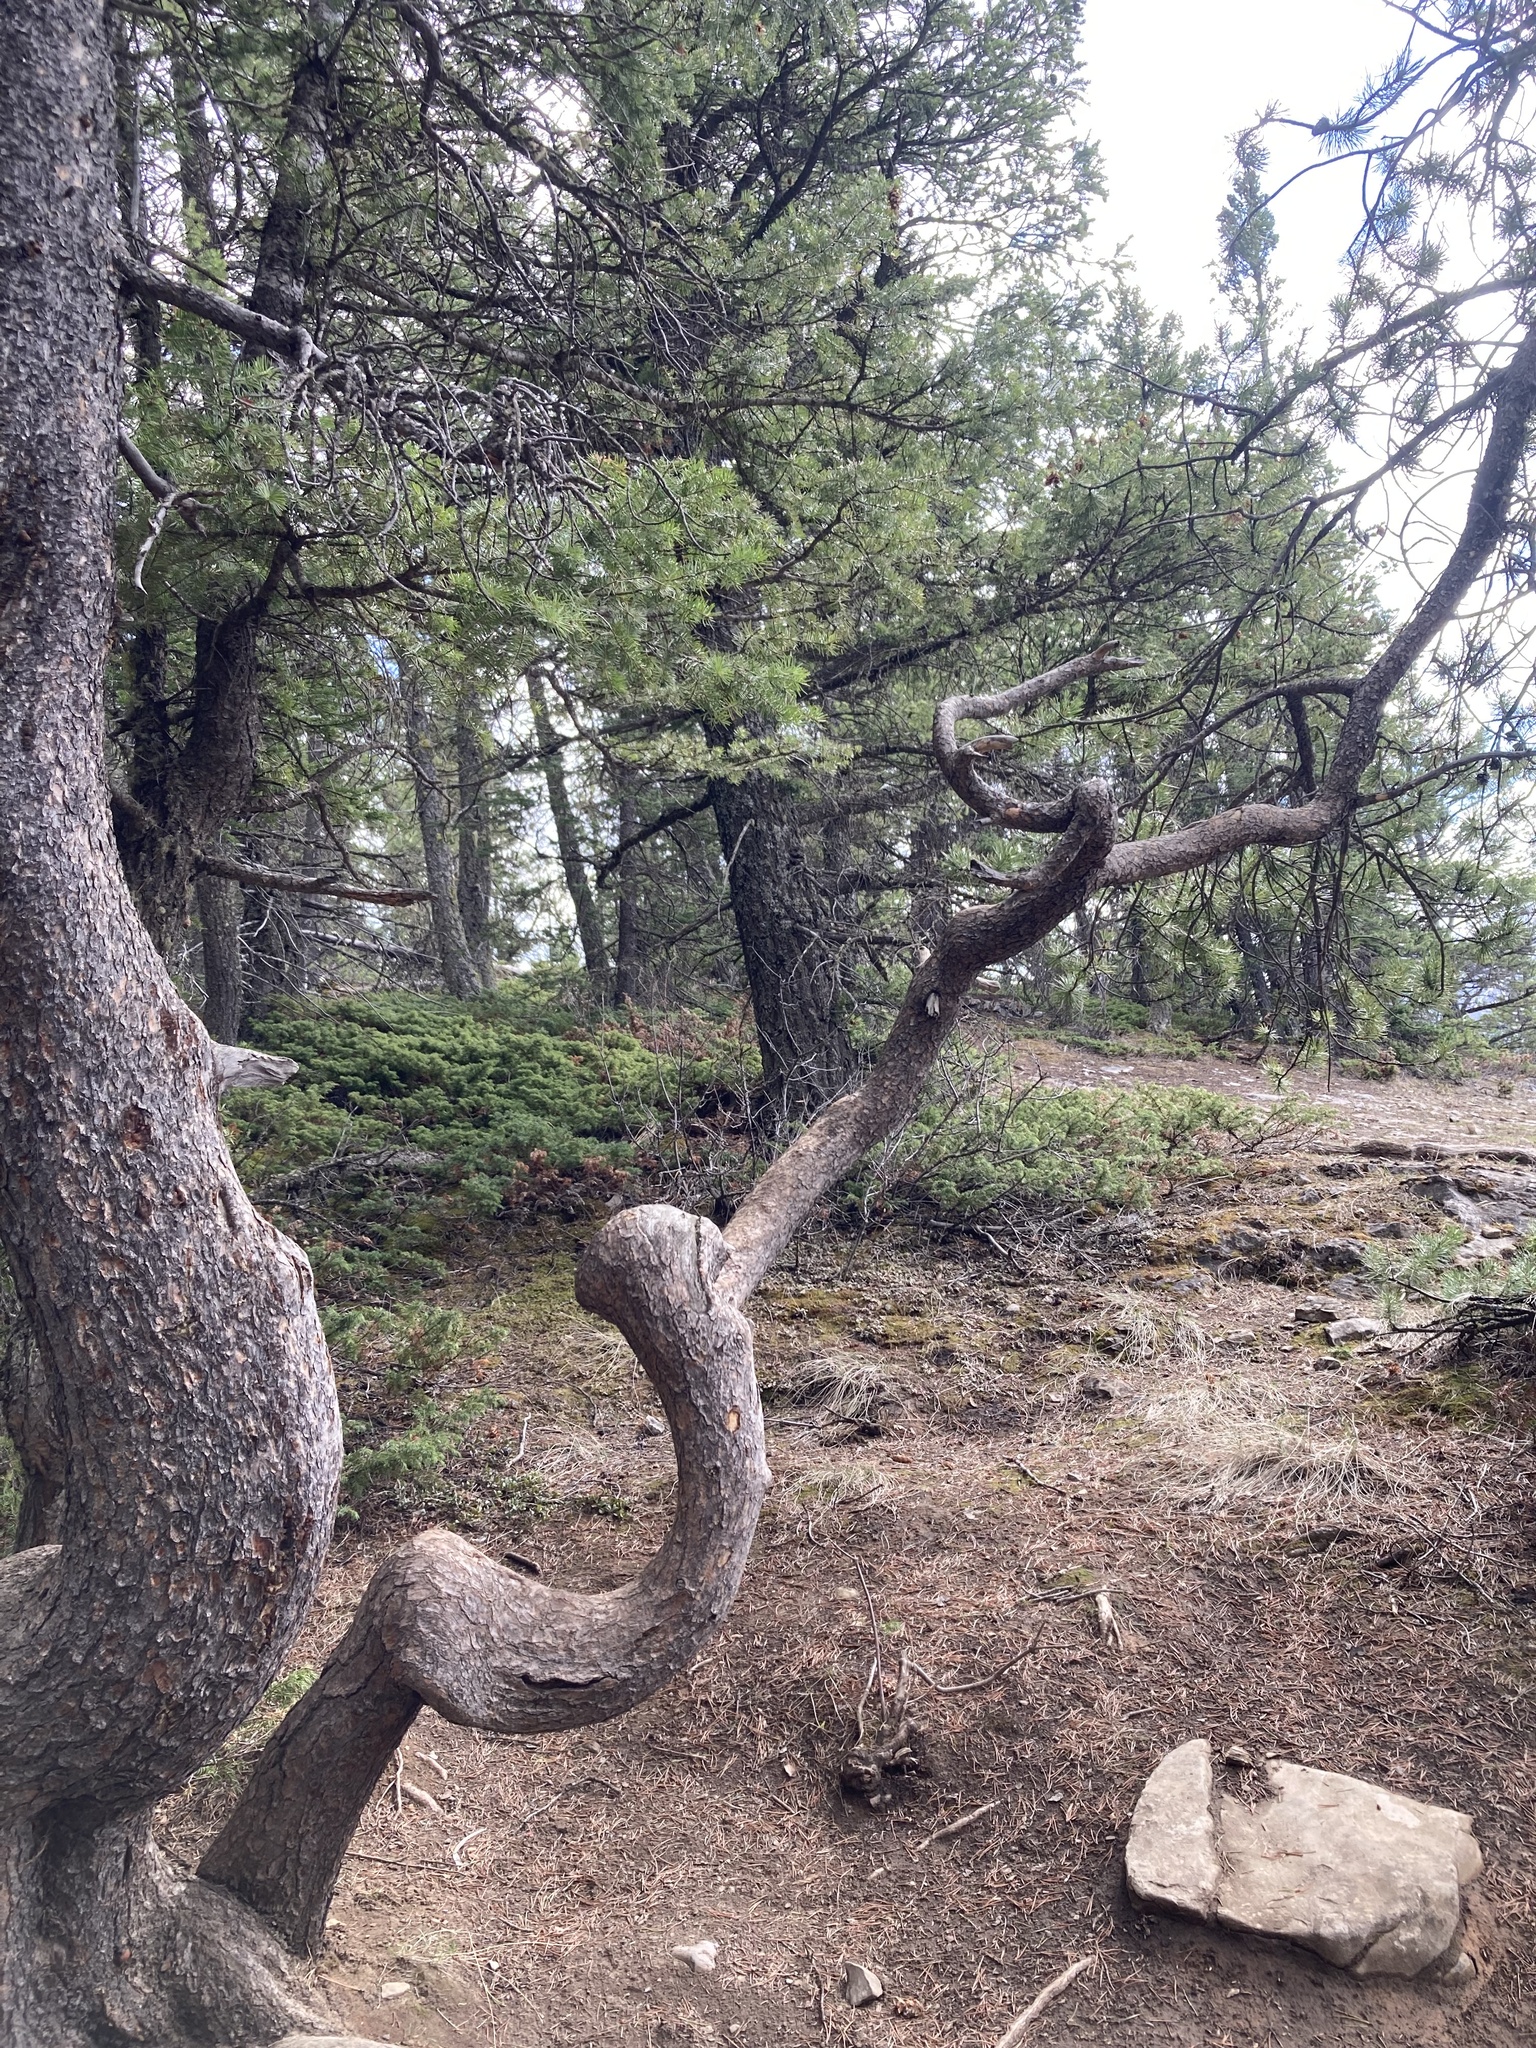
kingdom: Plantae
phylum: Tracheophyta
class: Pinopsida
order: Pinales
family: Pinaceae
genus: Pinus
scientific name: Pinus contorta
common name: Lodgepole pine
